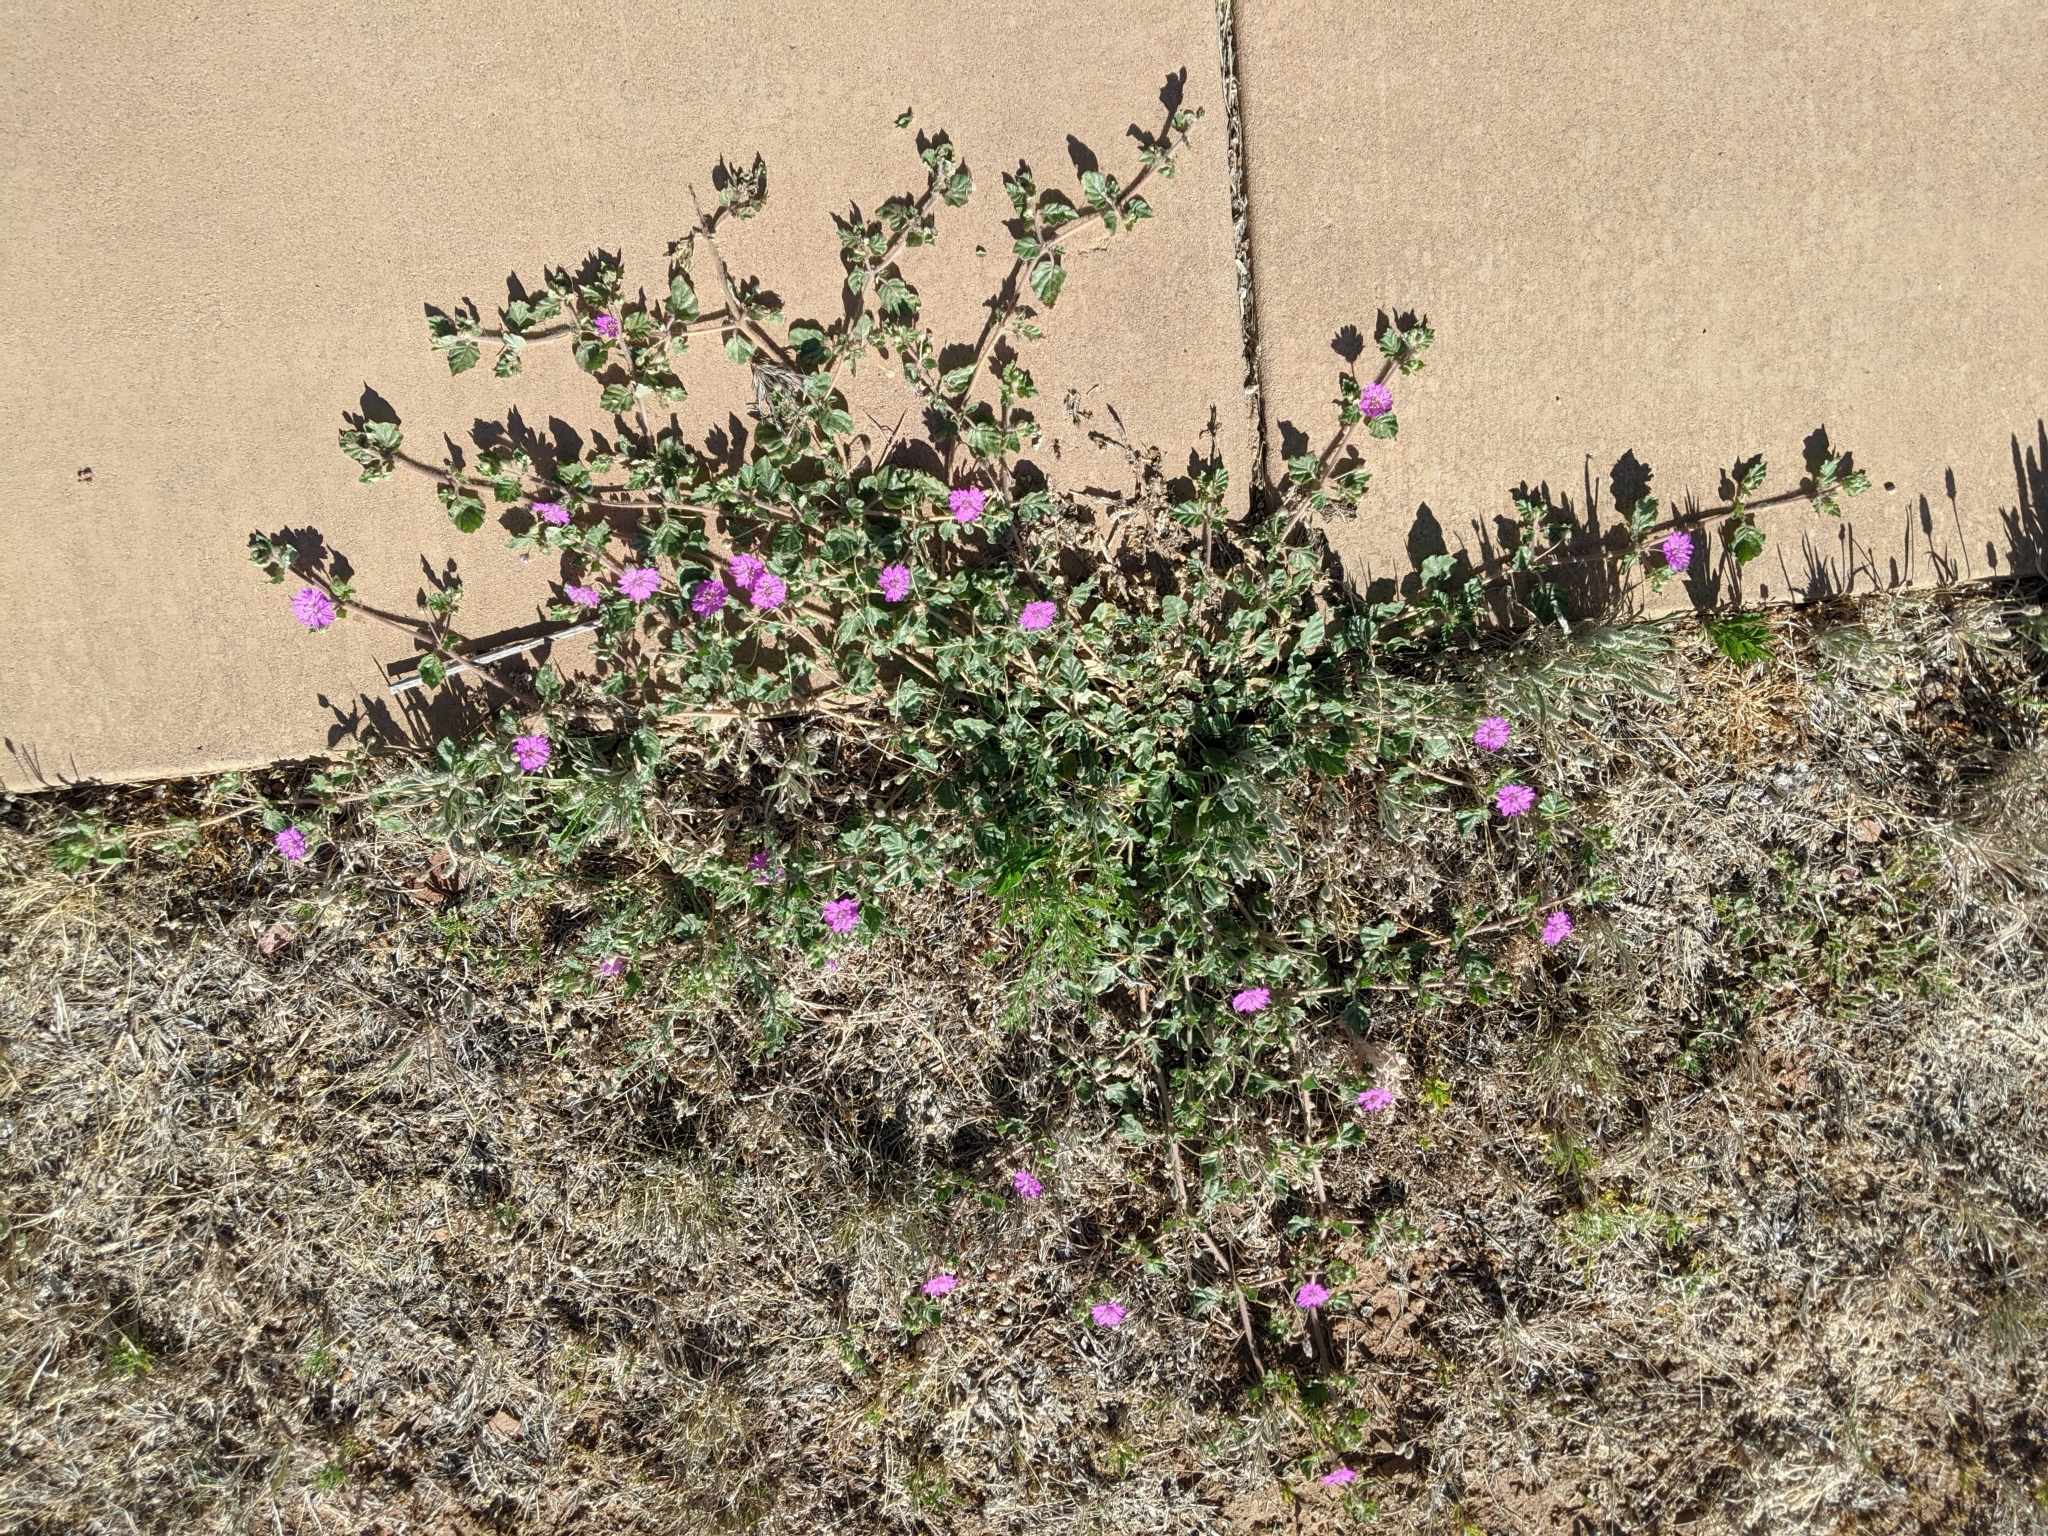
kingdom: Plantae
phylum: Tracheophyta
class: Magnoliopsida
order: Caryophyllales
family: Nyctaginaceae
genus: Allionia
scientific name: Allionia incarnata
